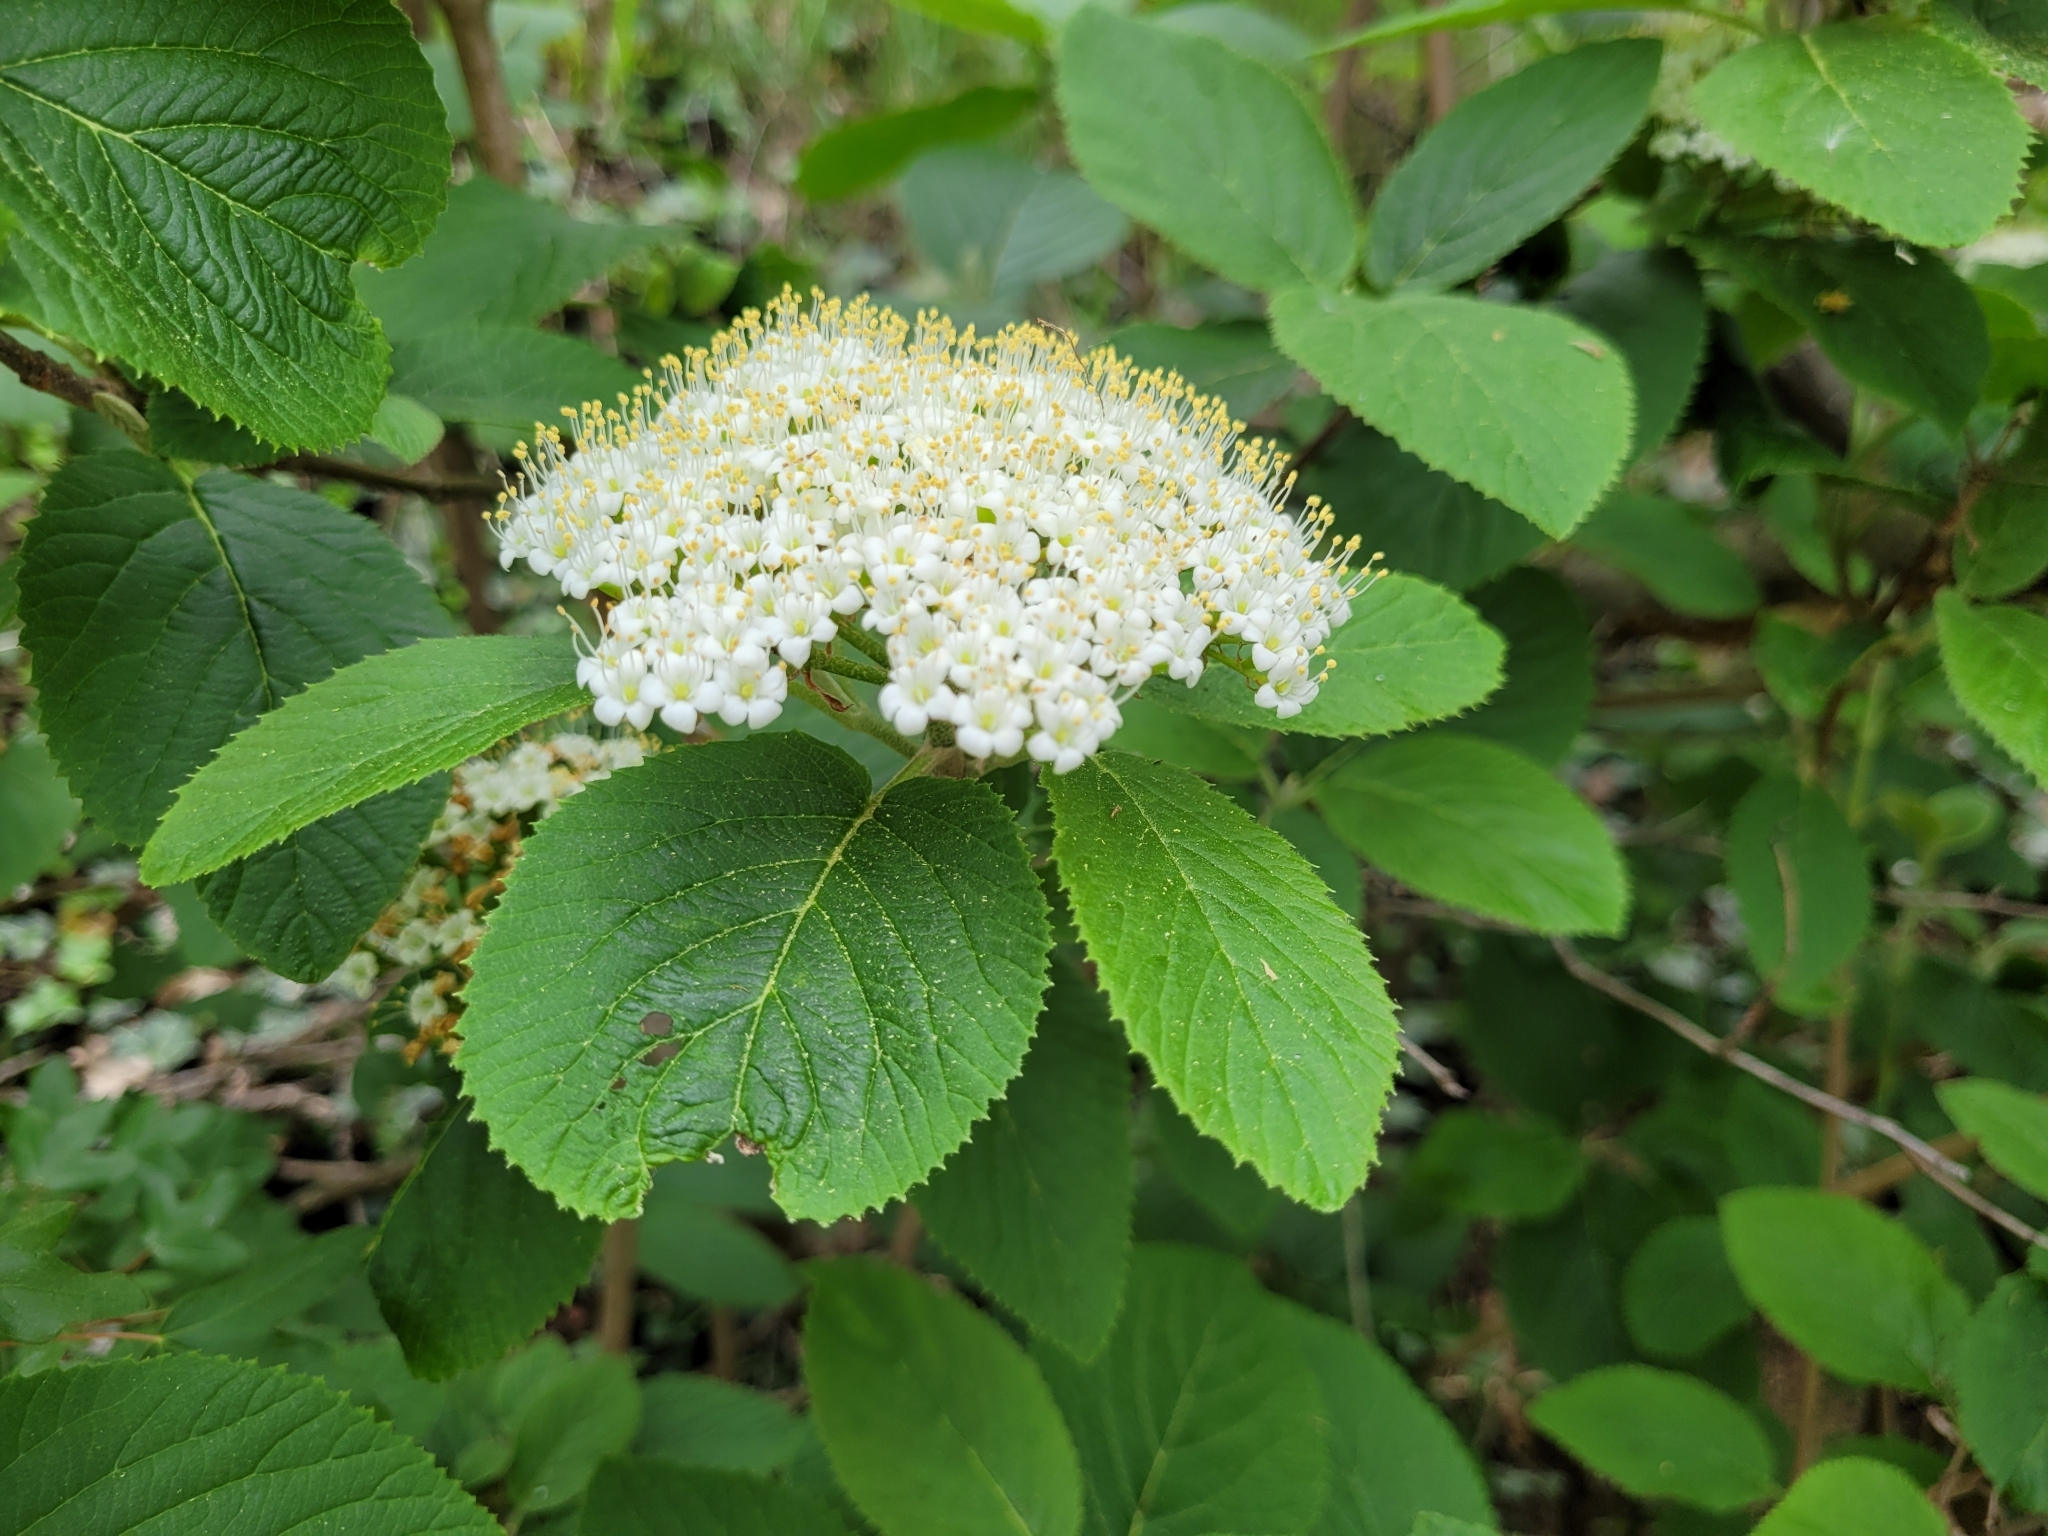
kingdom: Plantae
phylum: Tracheophyta
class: Magnoliopsida
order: Dipsacales
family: Viburnaceae
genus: Viburnum
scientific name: Viburnum lantana
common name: Wayfaring tree
